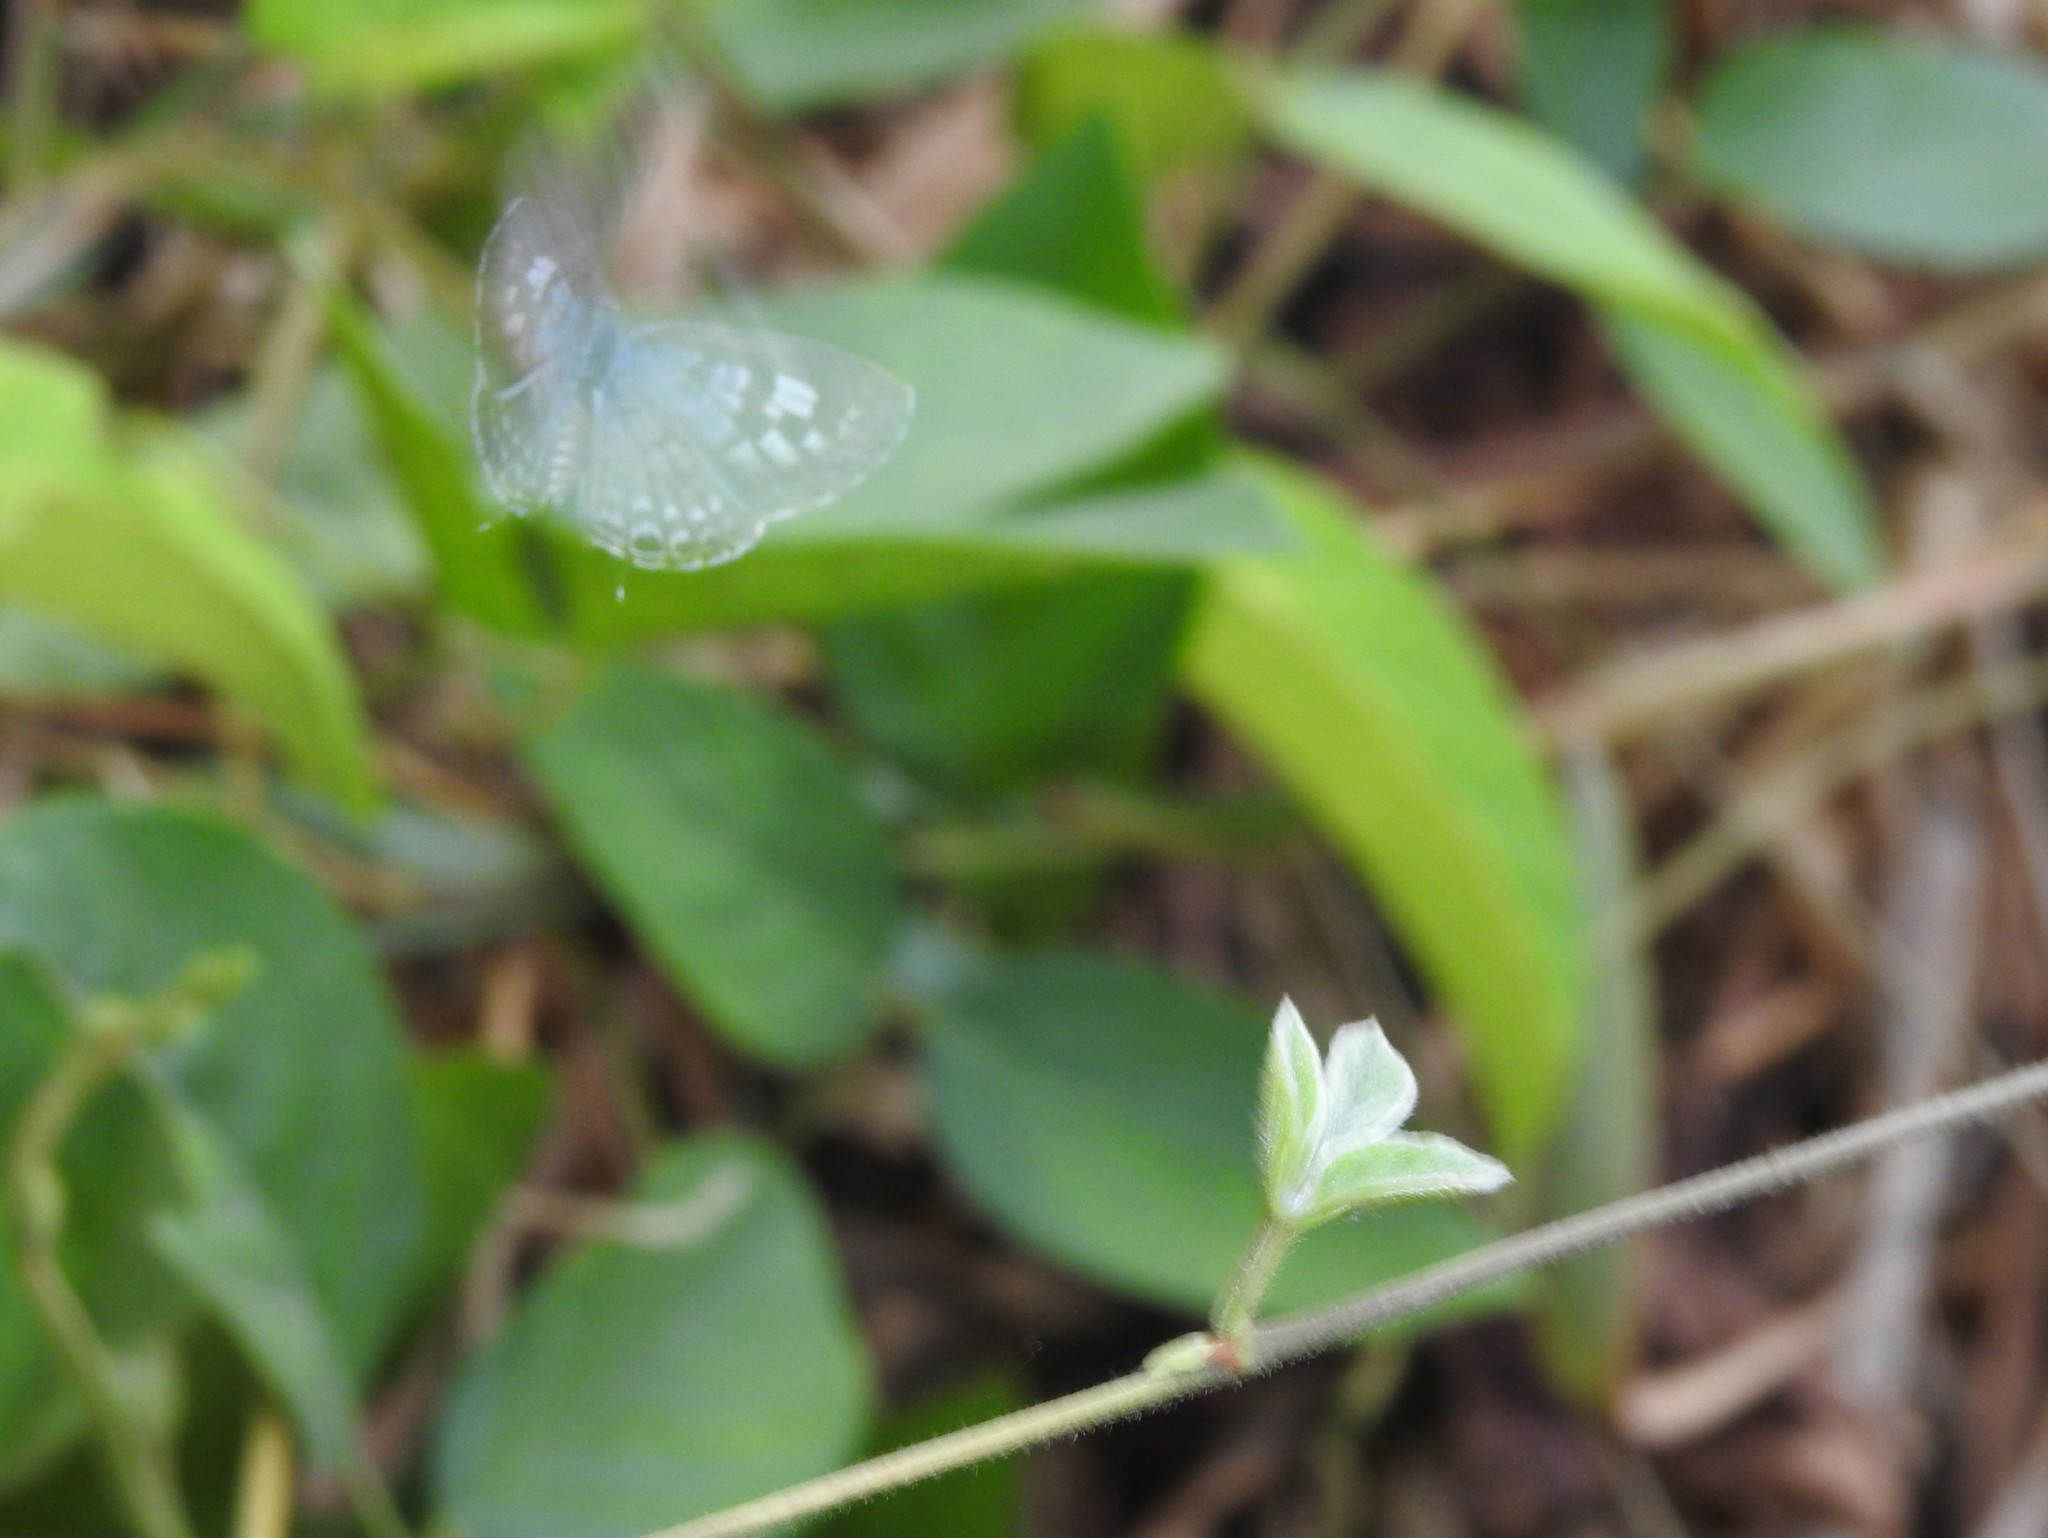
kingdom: Animalia
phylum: Arthropoda
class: Insecta
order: Lepidoptera
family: Lycaenidae
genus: Leptotes
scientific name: Leptotes plinius
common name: Zebra blue
